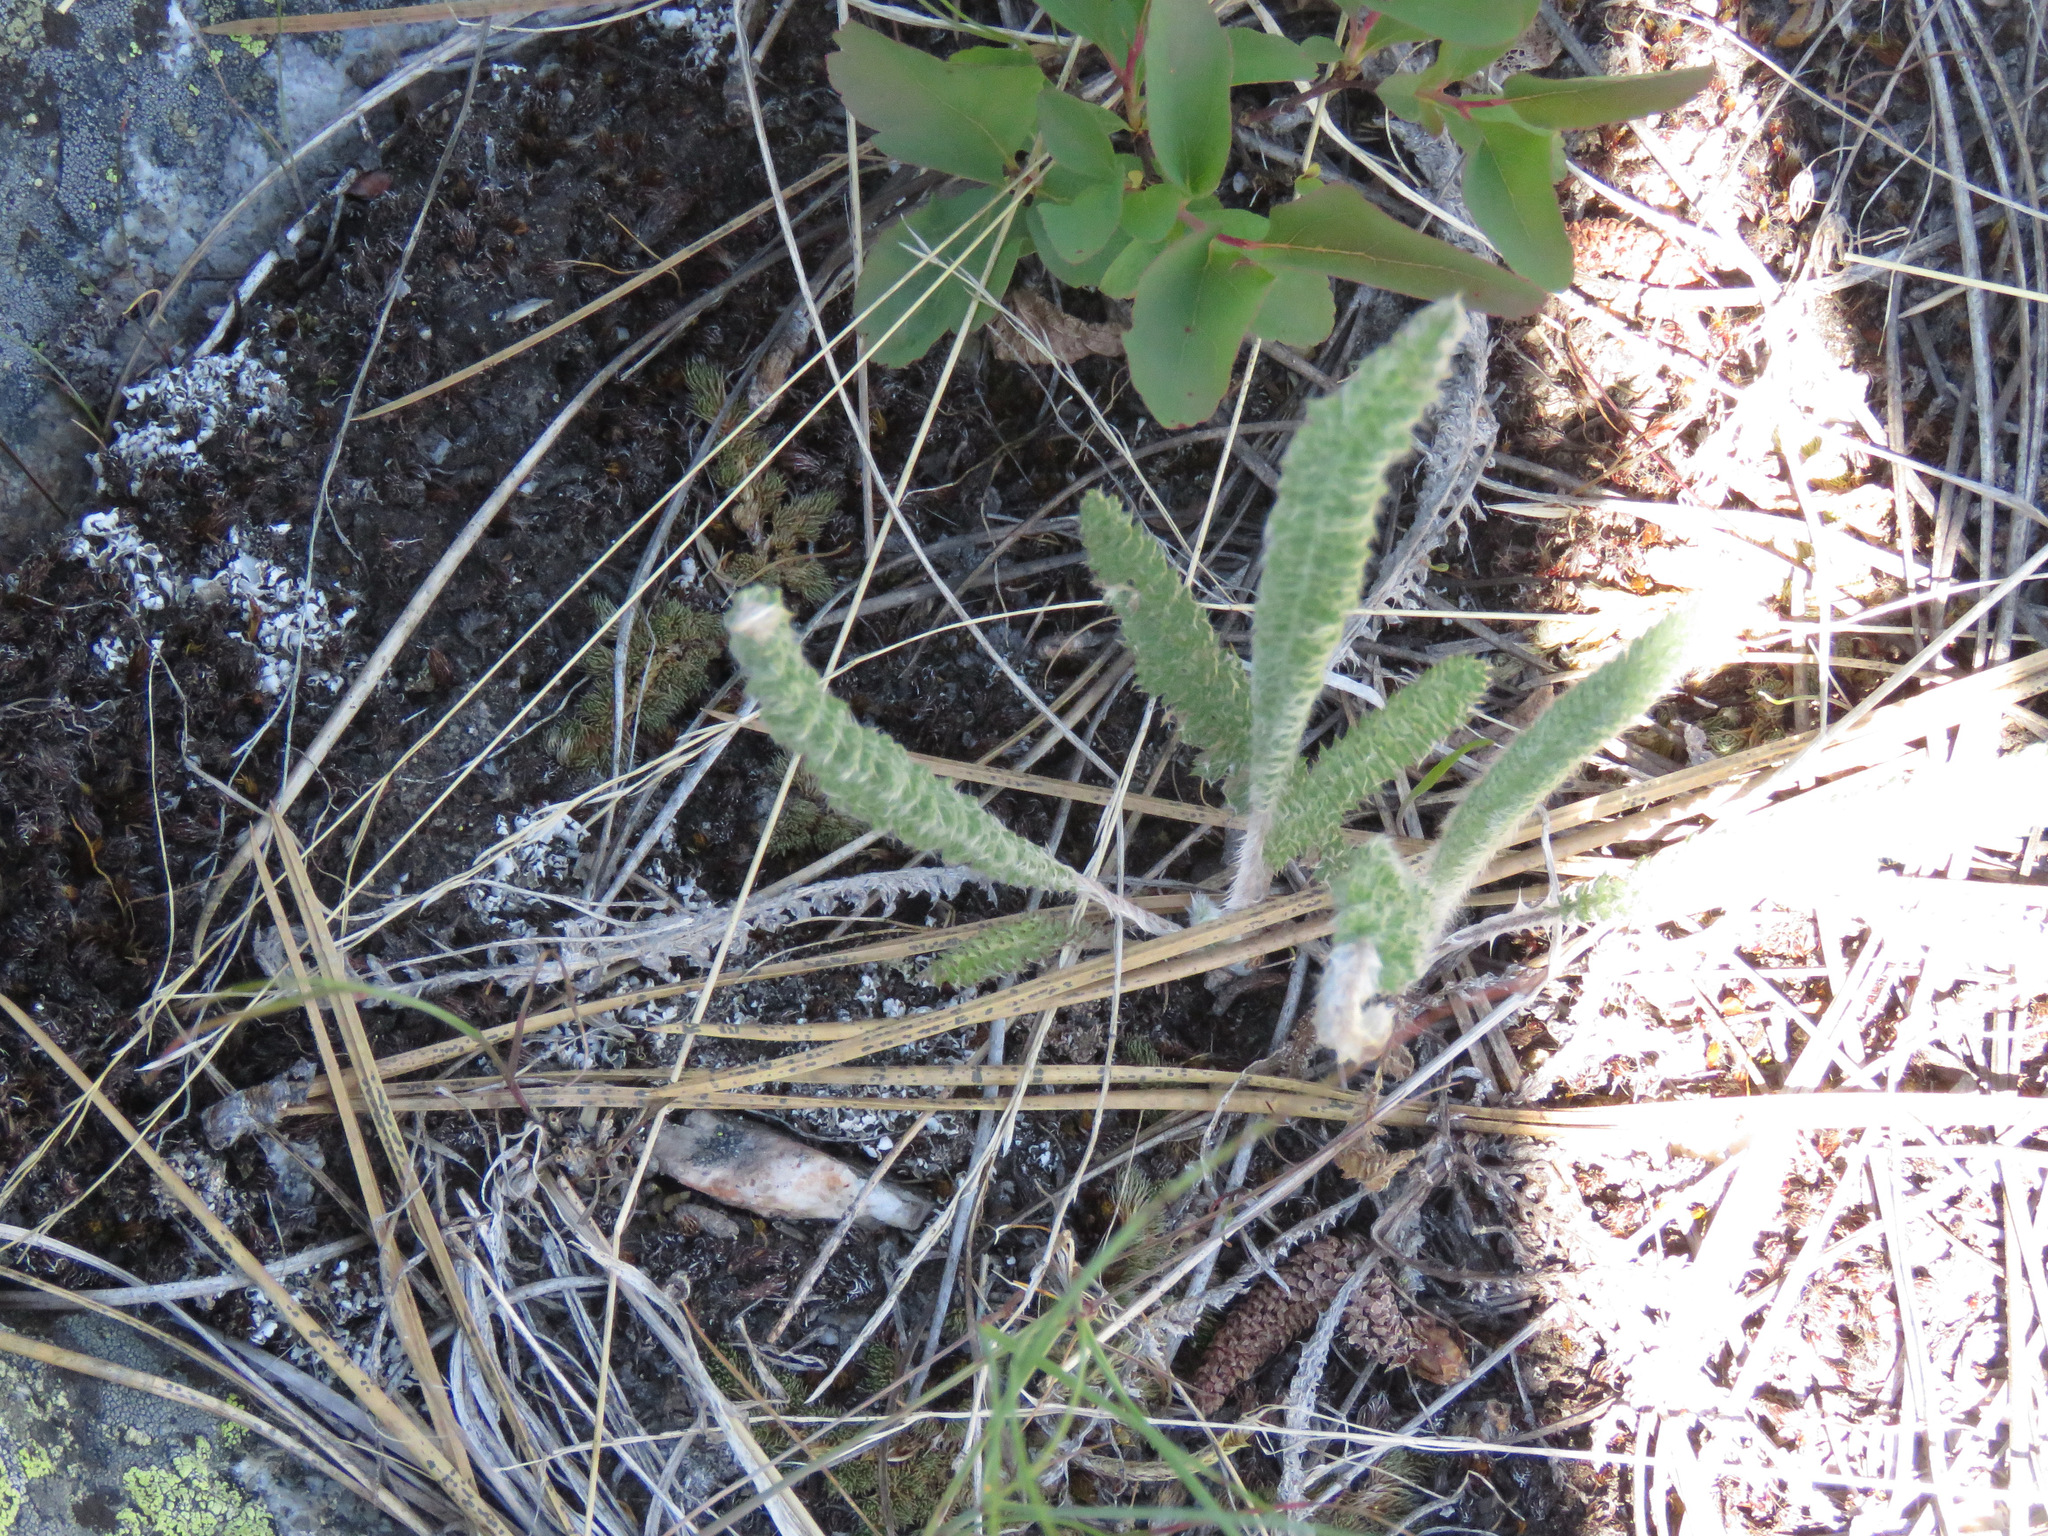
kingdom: Plantae
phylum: Tracheophyta
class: Magnoliopsida
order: Asterales
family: Asteraceae
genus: Achillea
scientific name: Achillea millefolium
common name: Yarrow
